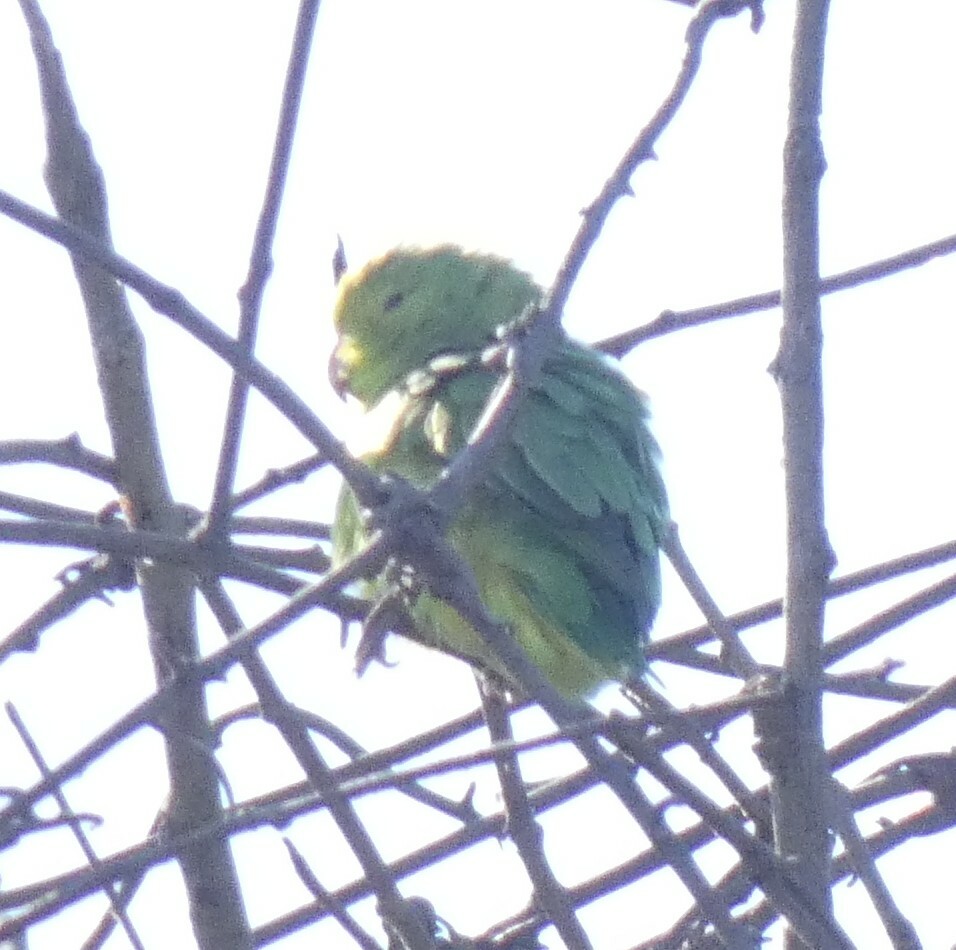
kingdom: Animalia
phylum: Chordata
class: Aves
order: Psittaciformes
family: Psittacidae
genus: Forpus
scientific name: Forpus xanthopterygius
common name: Blue-winged parrotlet
